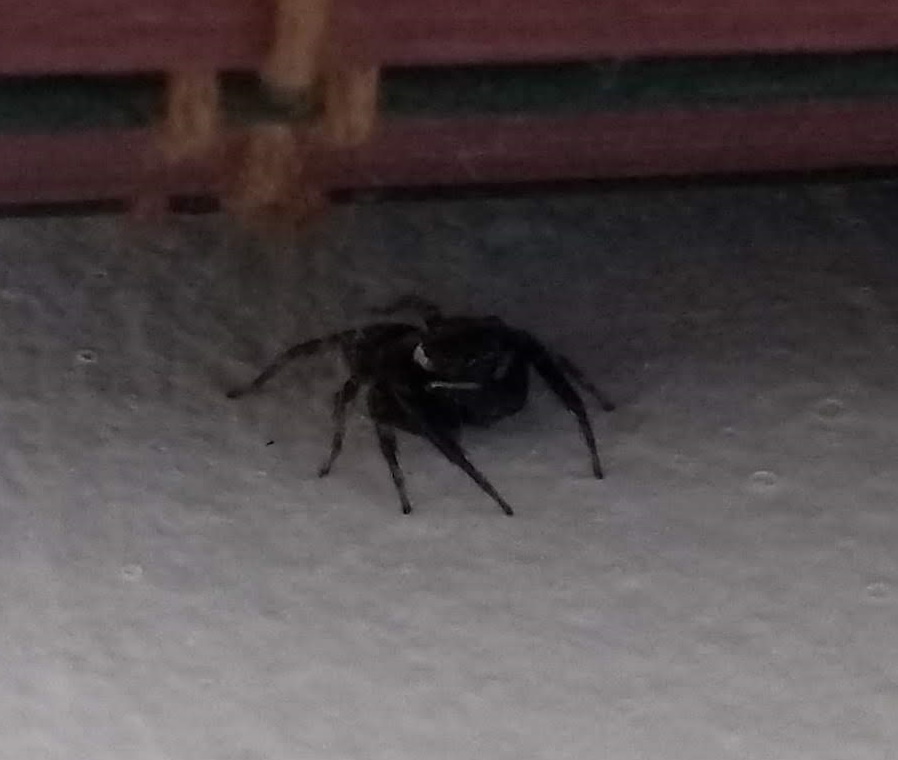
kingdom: Animalia
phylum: Arthropoda
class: Arachnida
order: Araneae
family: Salticidae
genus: Hasarius
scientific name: Hasarius adansoni
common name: Jumping spider
